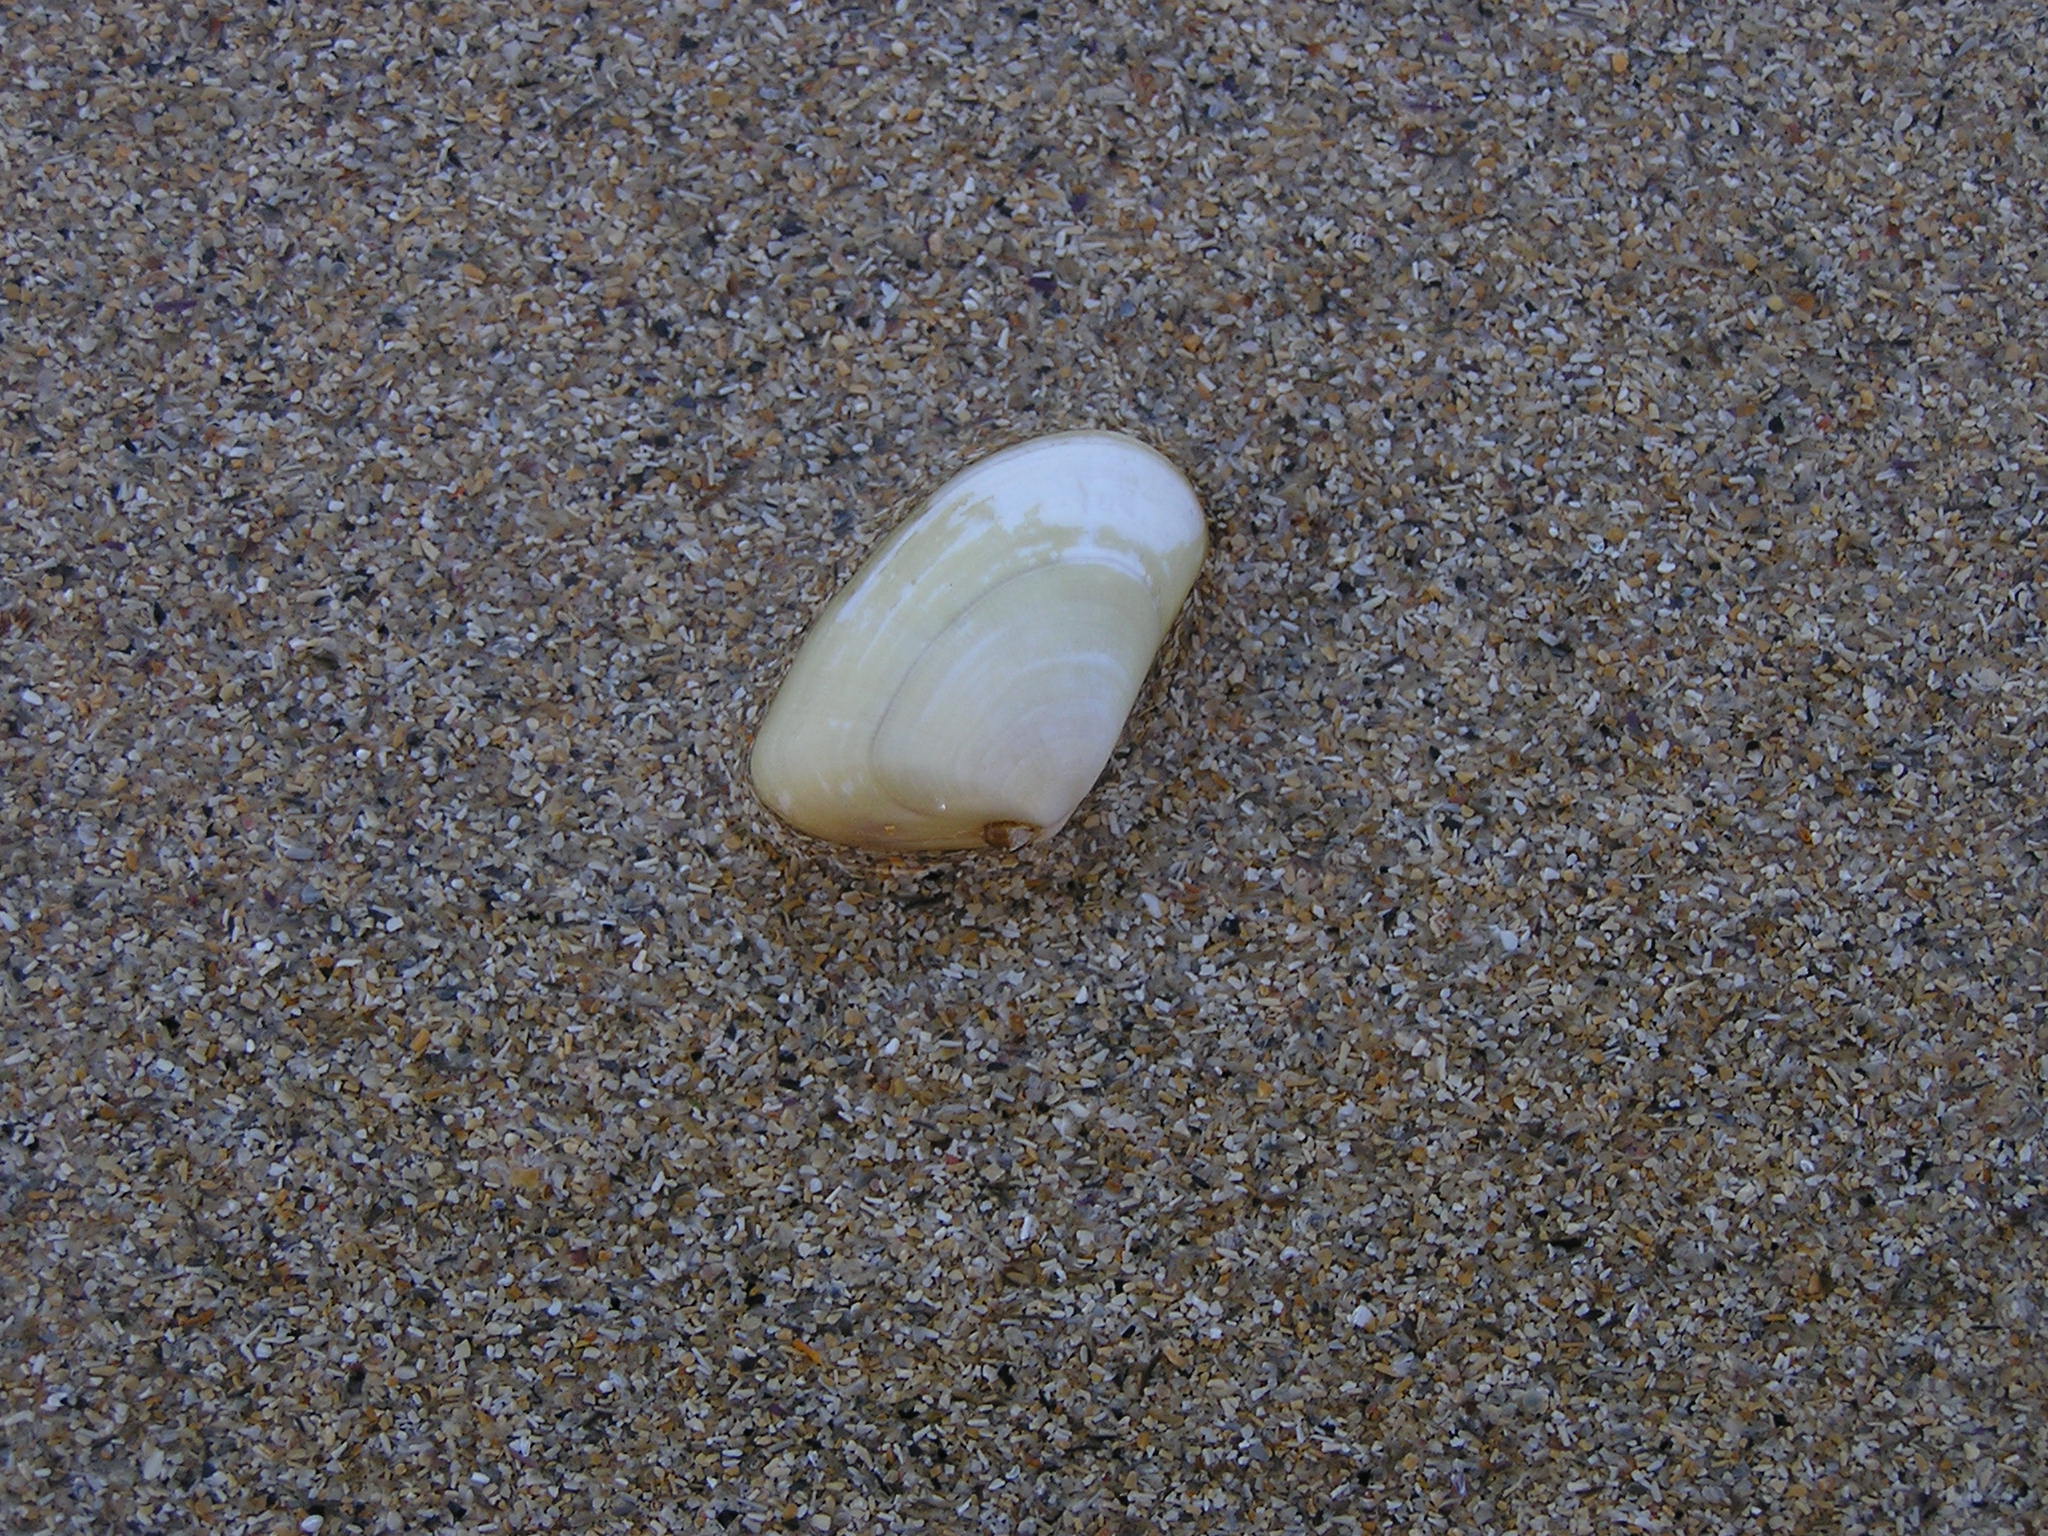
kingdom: Animalia
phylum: Mollusca
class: Bivalvia
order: Cardiida
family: Donacidae
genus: Donax
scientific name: Donax trunculus
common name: Truncate donax
